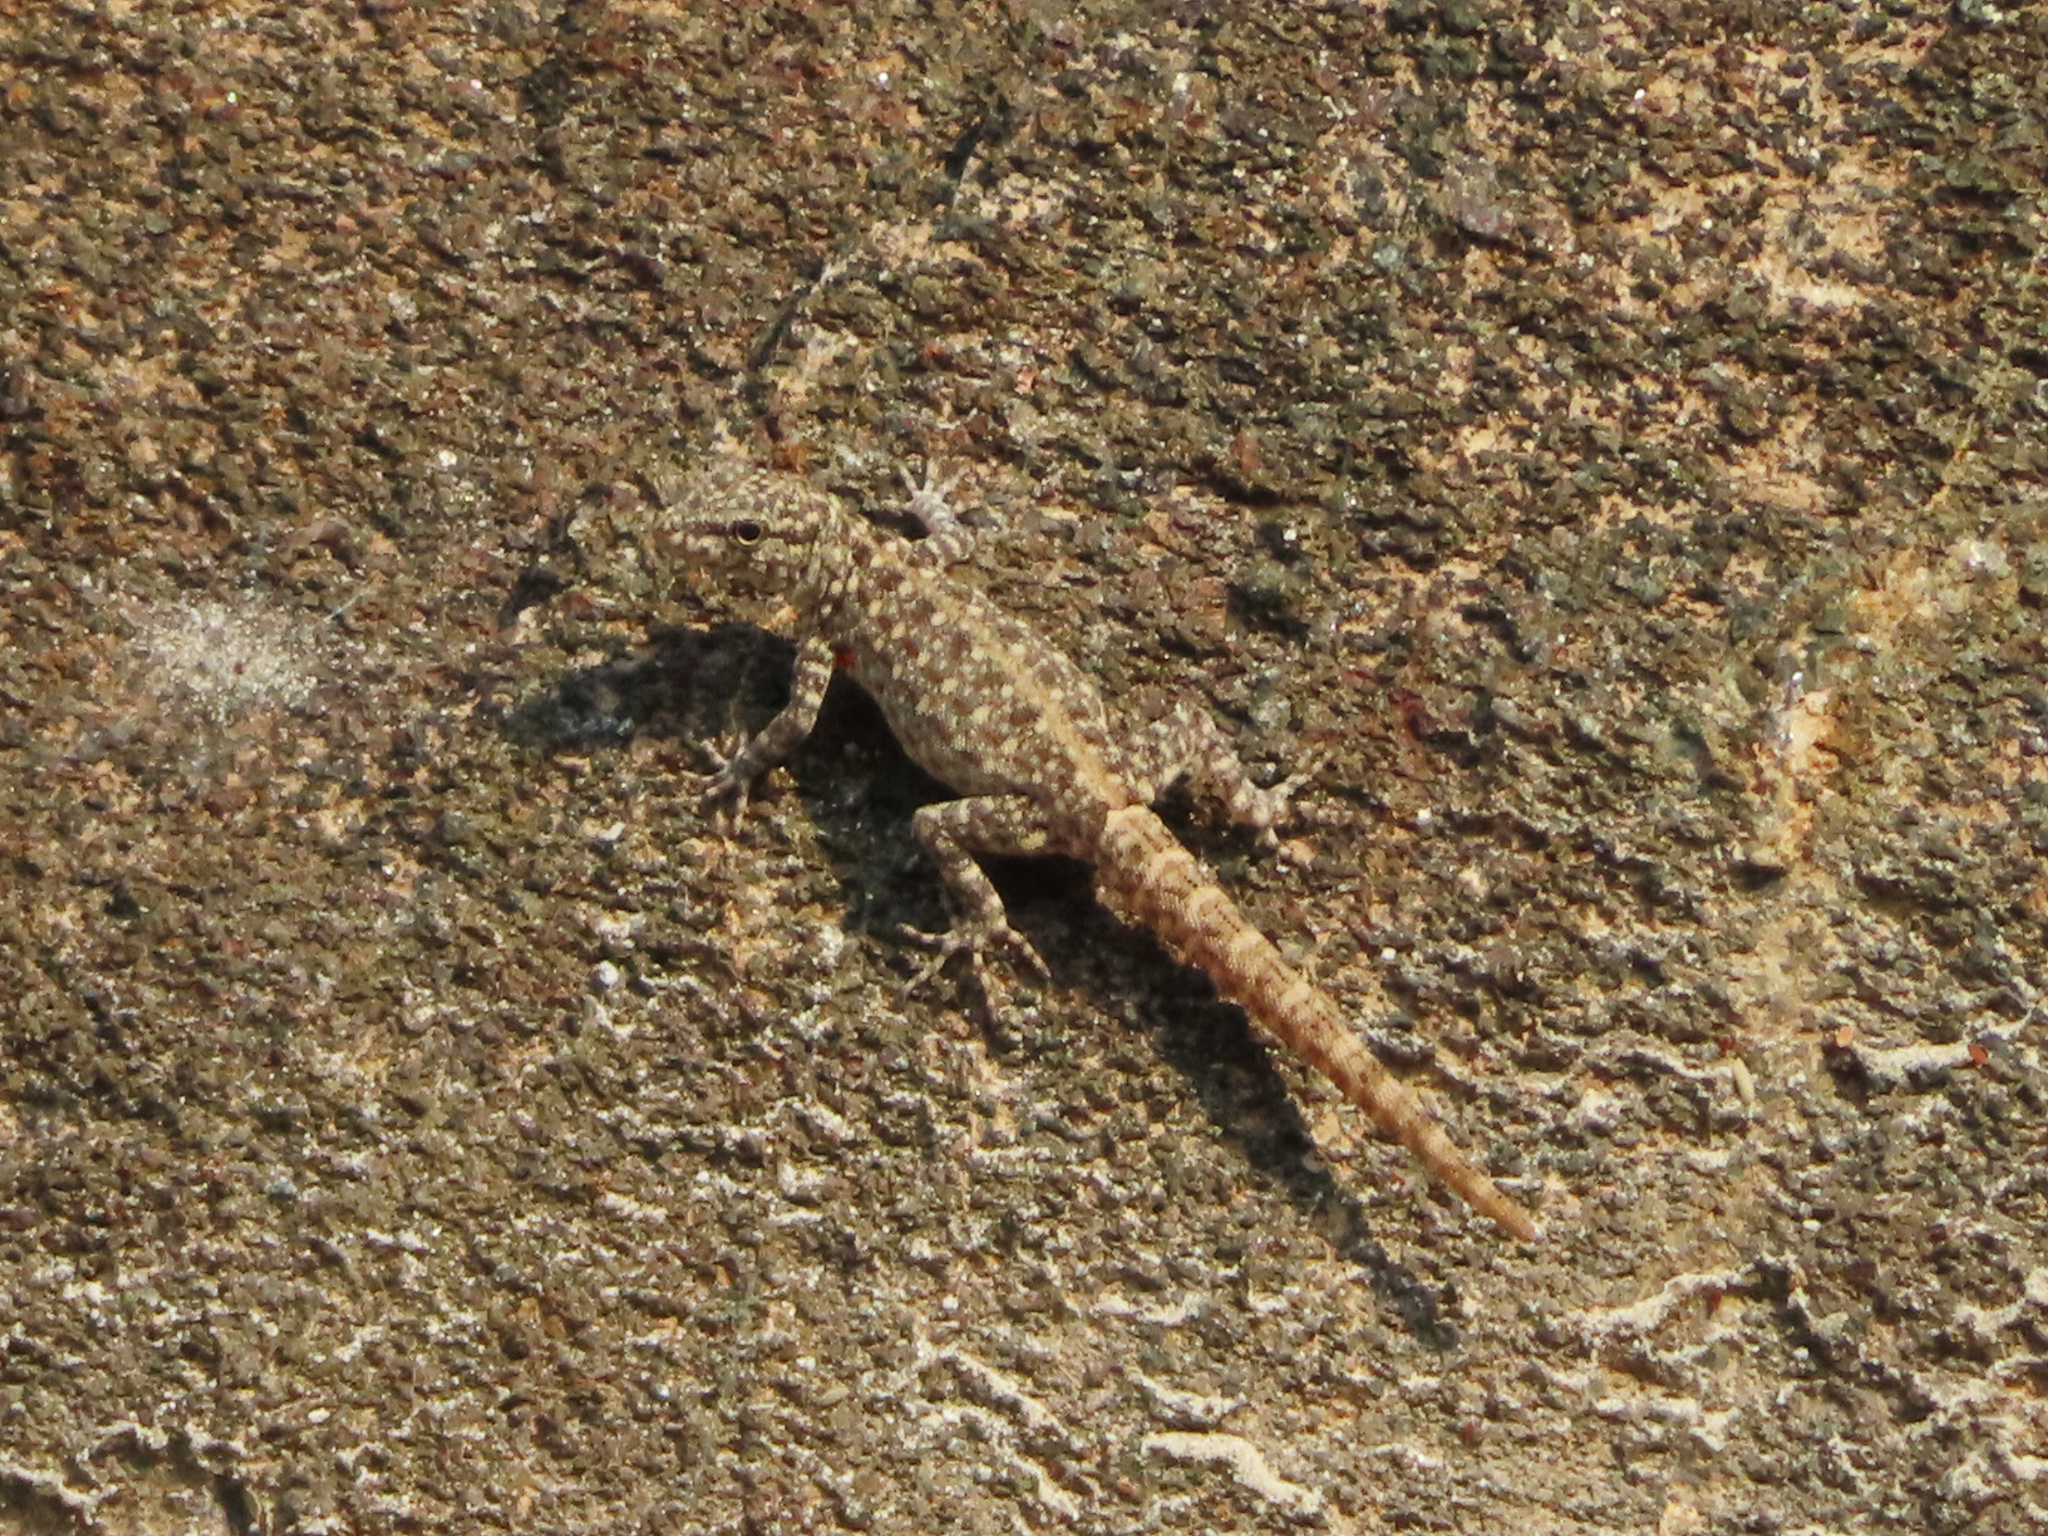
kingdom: Animalia
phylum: Chordata
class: Squamata
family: Sphaerodactylidae
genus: Pristurus
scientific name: Pristurus rupestris
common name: Blanford’s semaphore gecko
